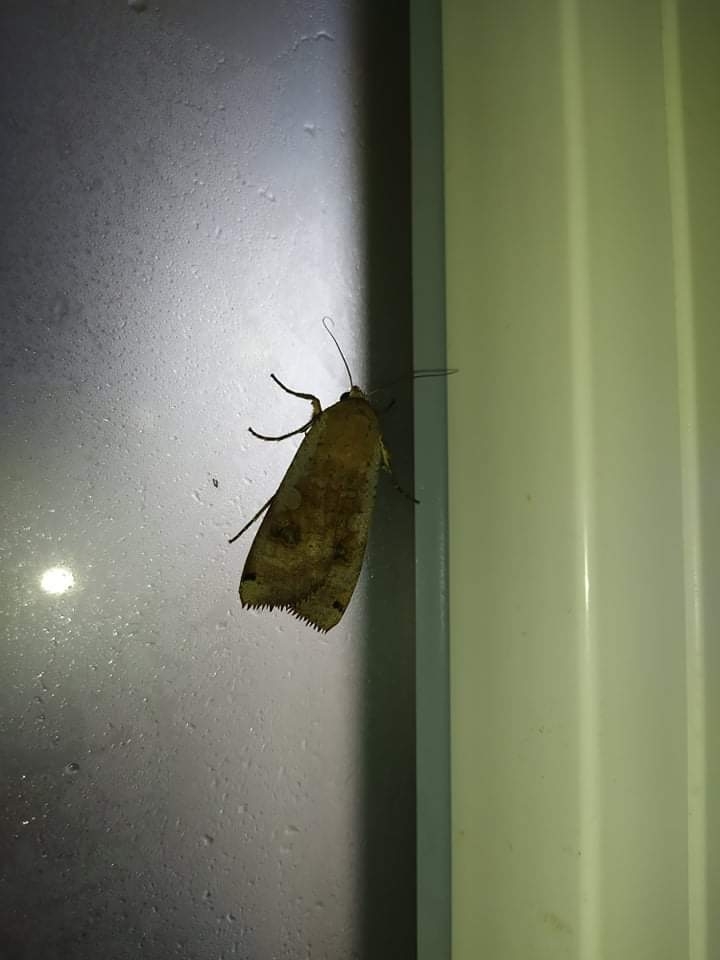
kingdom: Animalia
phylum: Arthropoda
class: Insecta
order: Lepidoptera
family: Noctuidae
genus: Noctua
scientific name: Noctua pronuba
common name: Large yellow underwing
